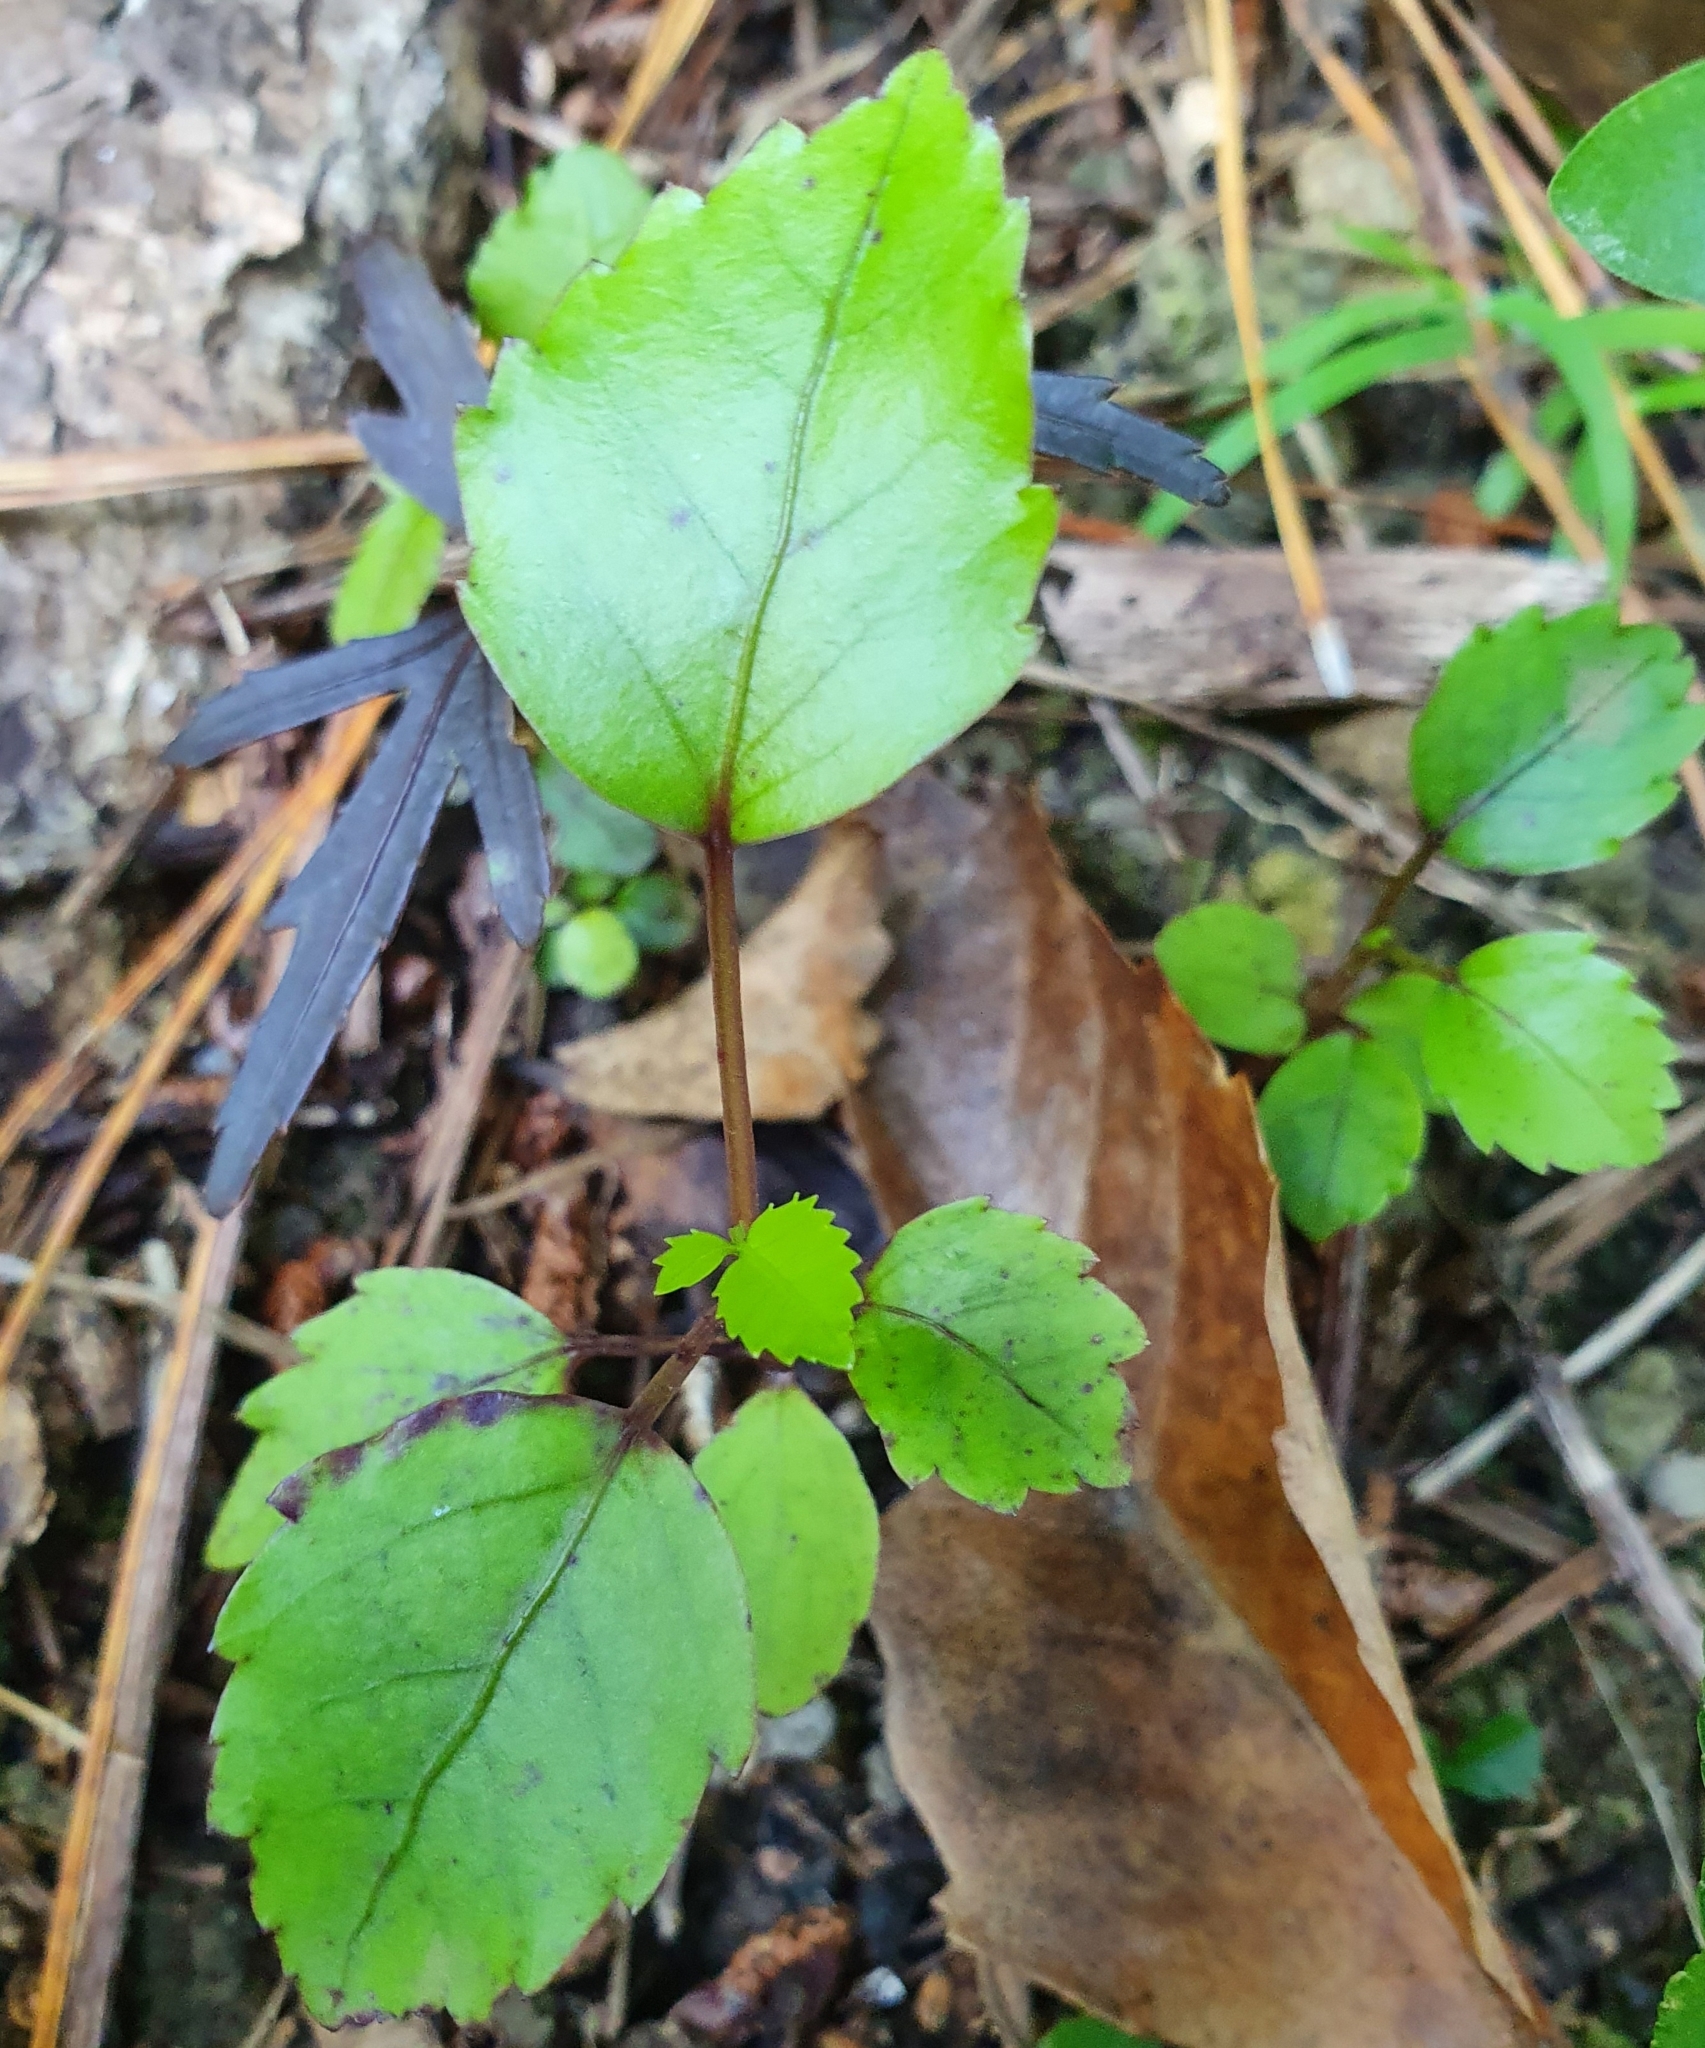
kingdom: Plantae
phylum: Tracheophyta
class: Magnoliopsida
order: Apiales
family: Araliaceae
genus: Neopanax
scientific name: Neopanax arboreus
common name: Five-fingers
